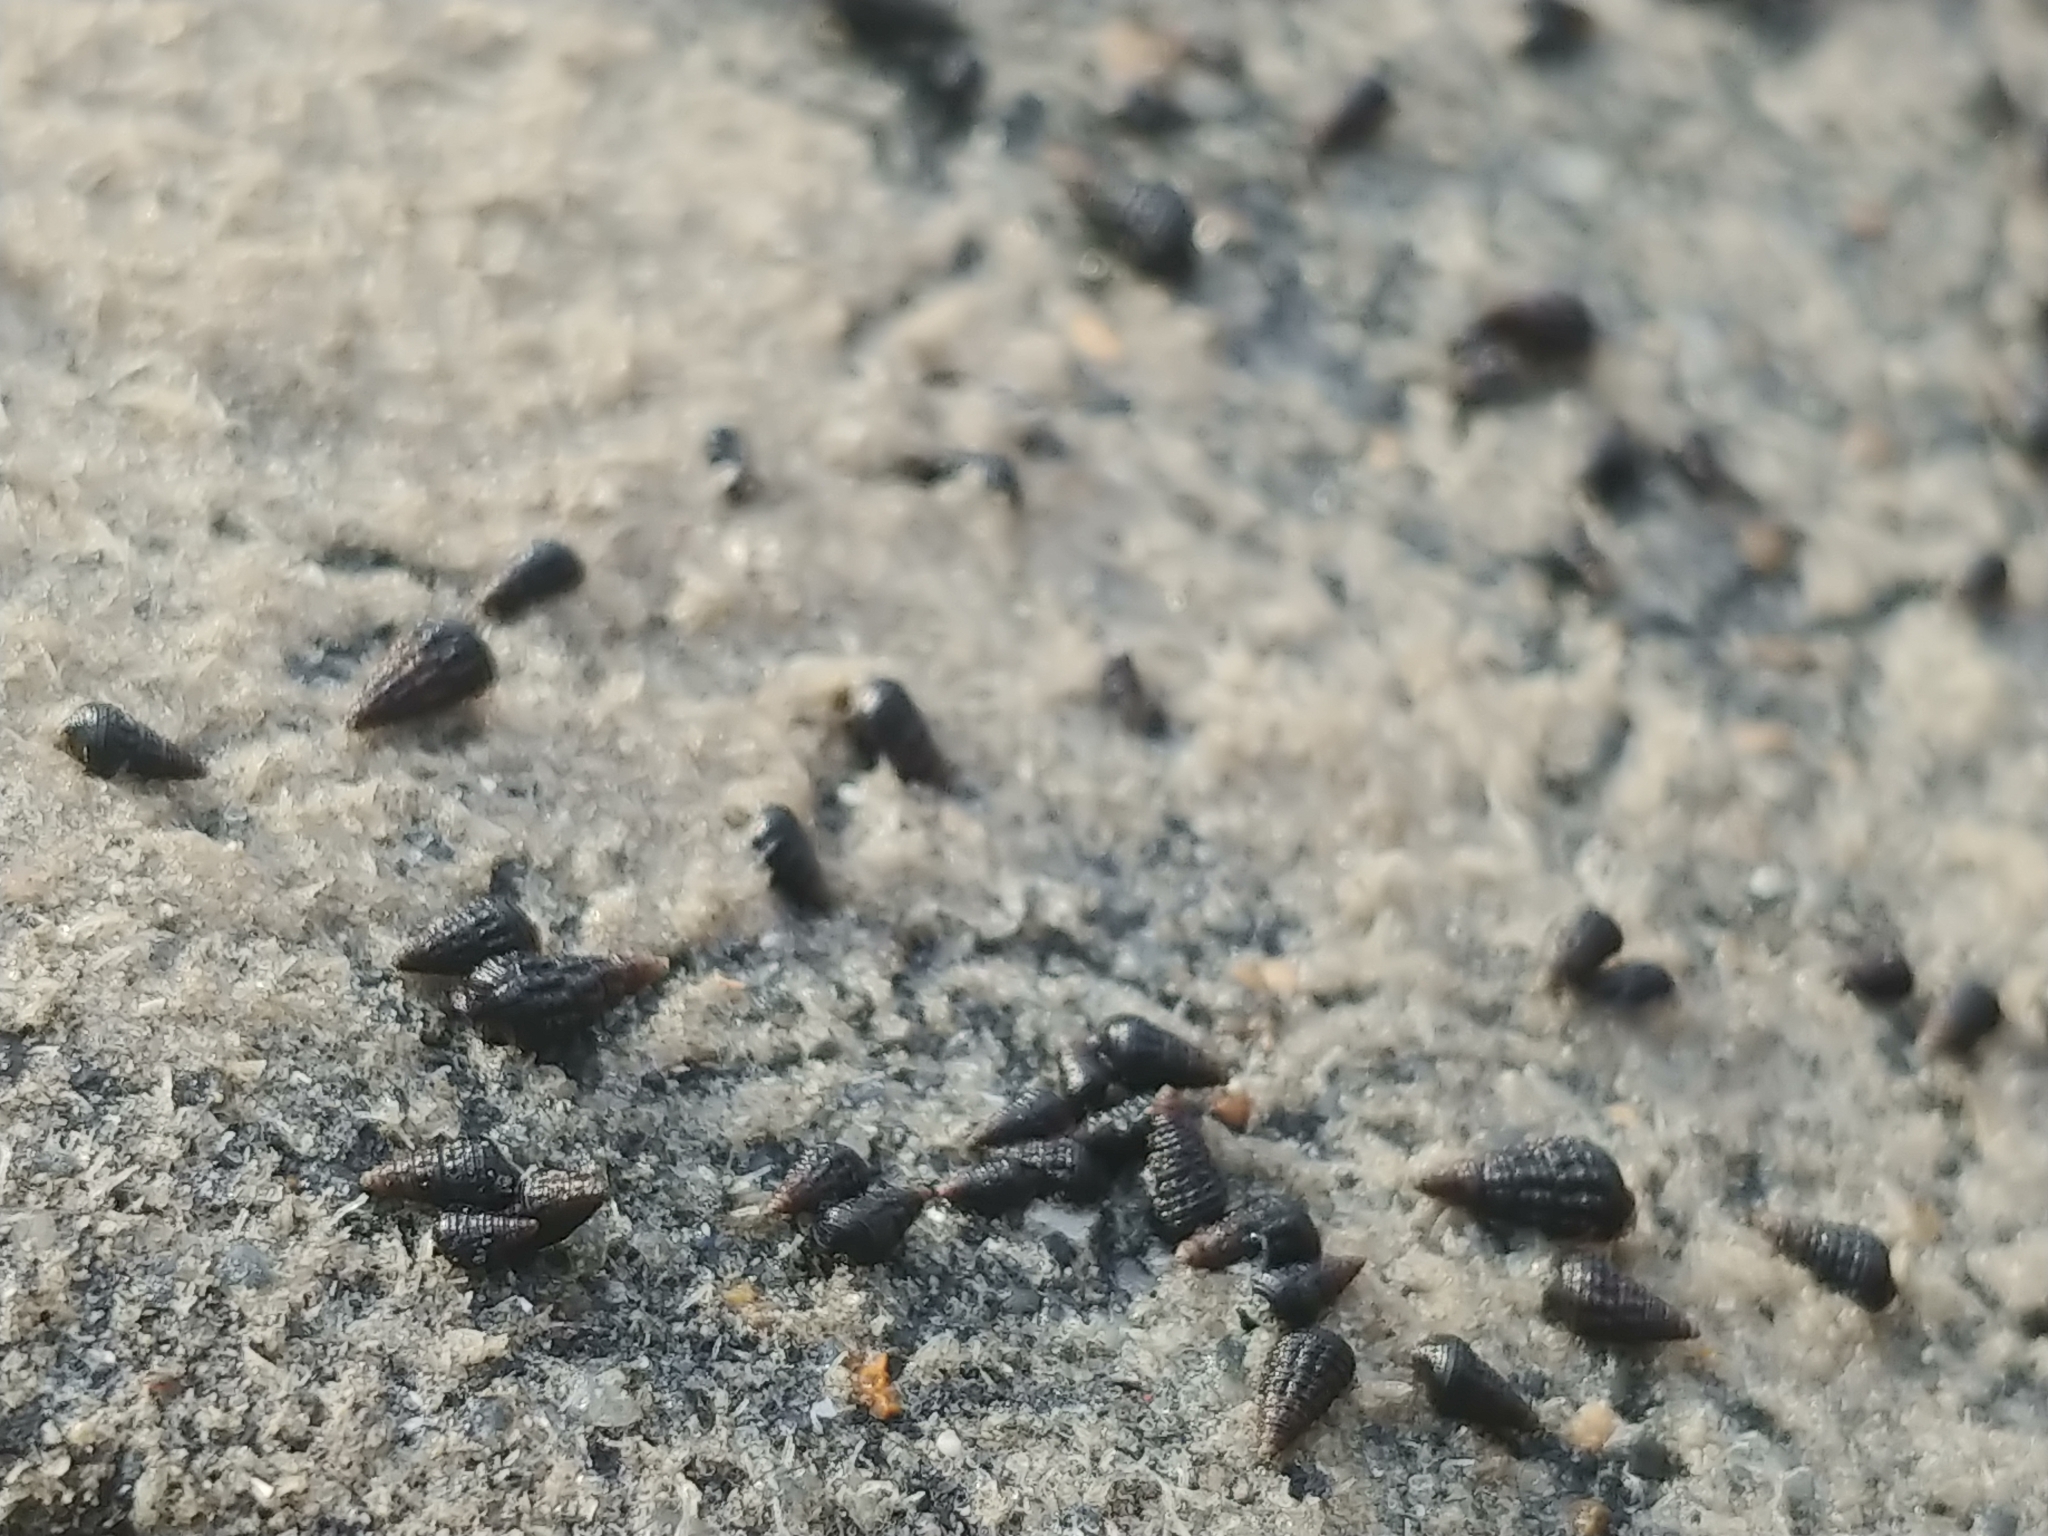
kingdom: Animalia
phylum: Mollusca
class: Gastropoda
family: Batillariidae
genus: Lampanella
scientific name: Lampanella minima
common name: West indian false cerith
